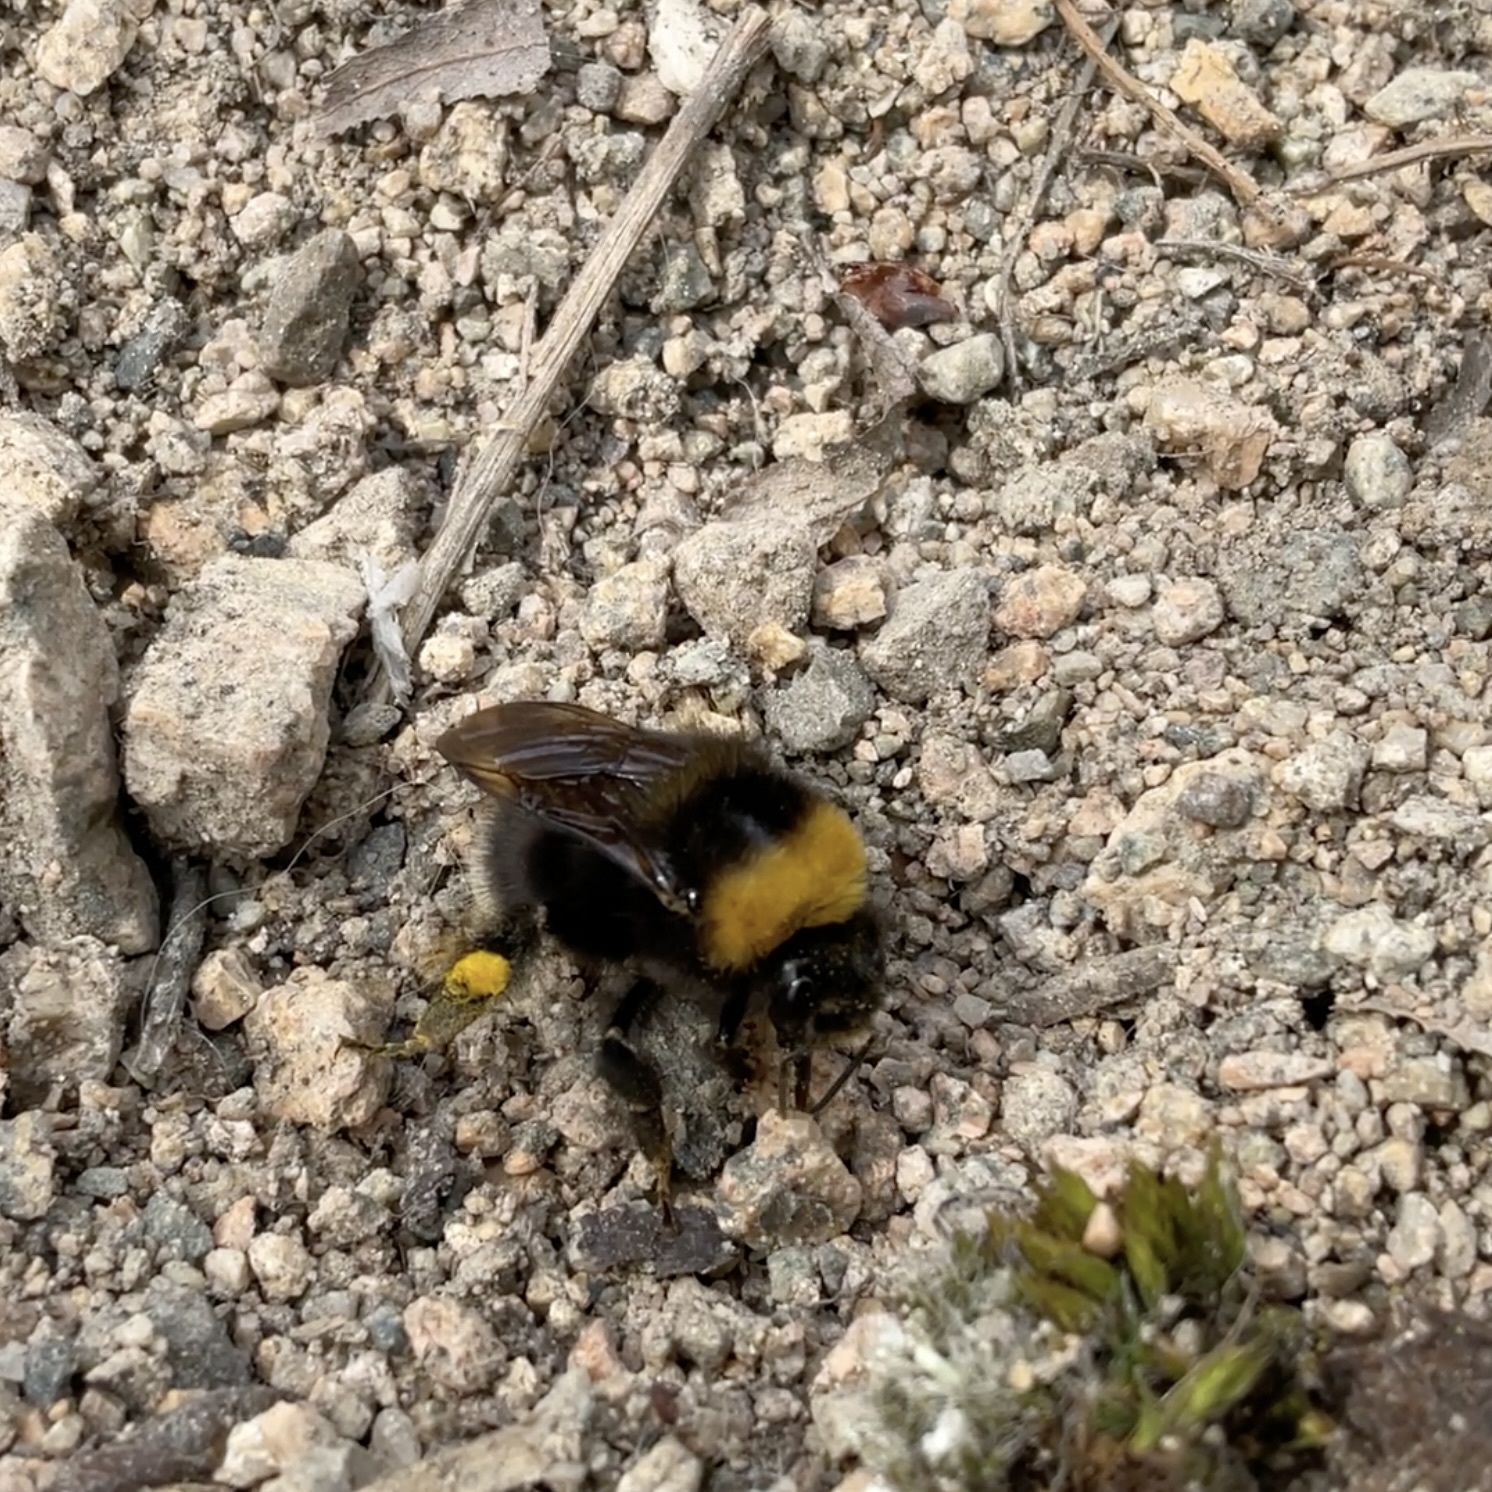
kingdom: Animalia
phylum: Arthropoda
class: Insecta
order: Hymenoptera
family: Apidae
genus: Bombus
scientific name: Bombus occidentalis
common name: Western bumble bee
